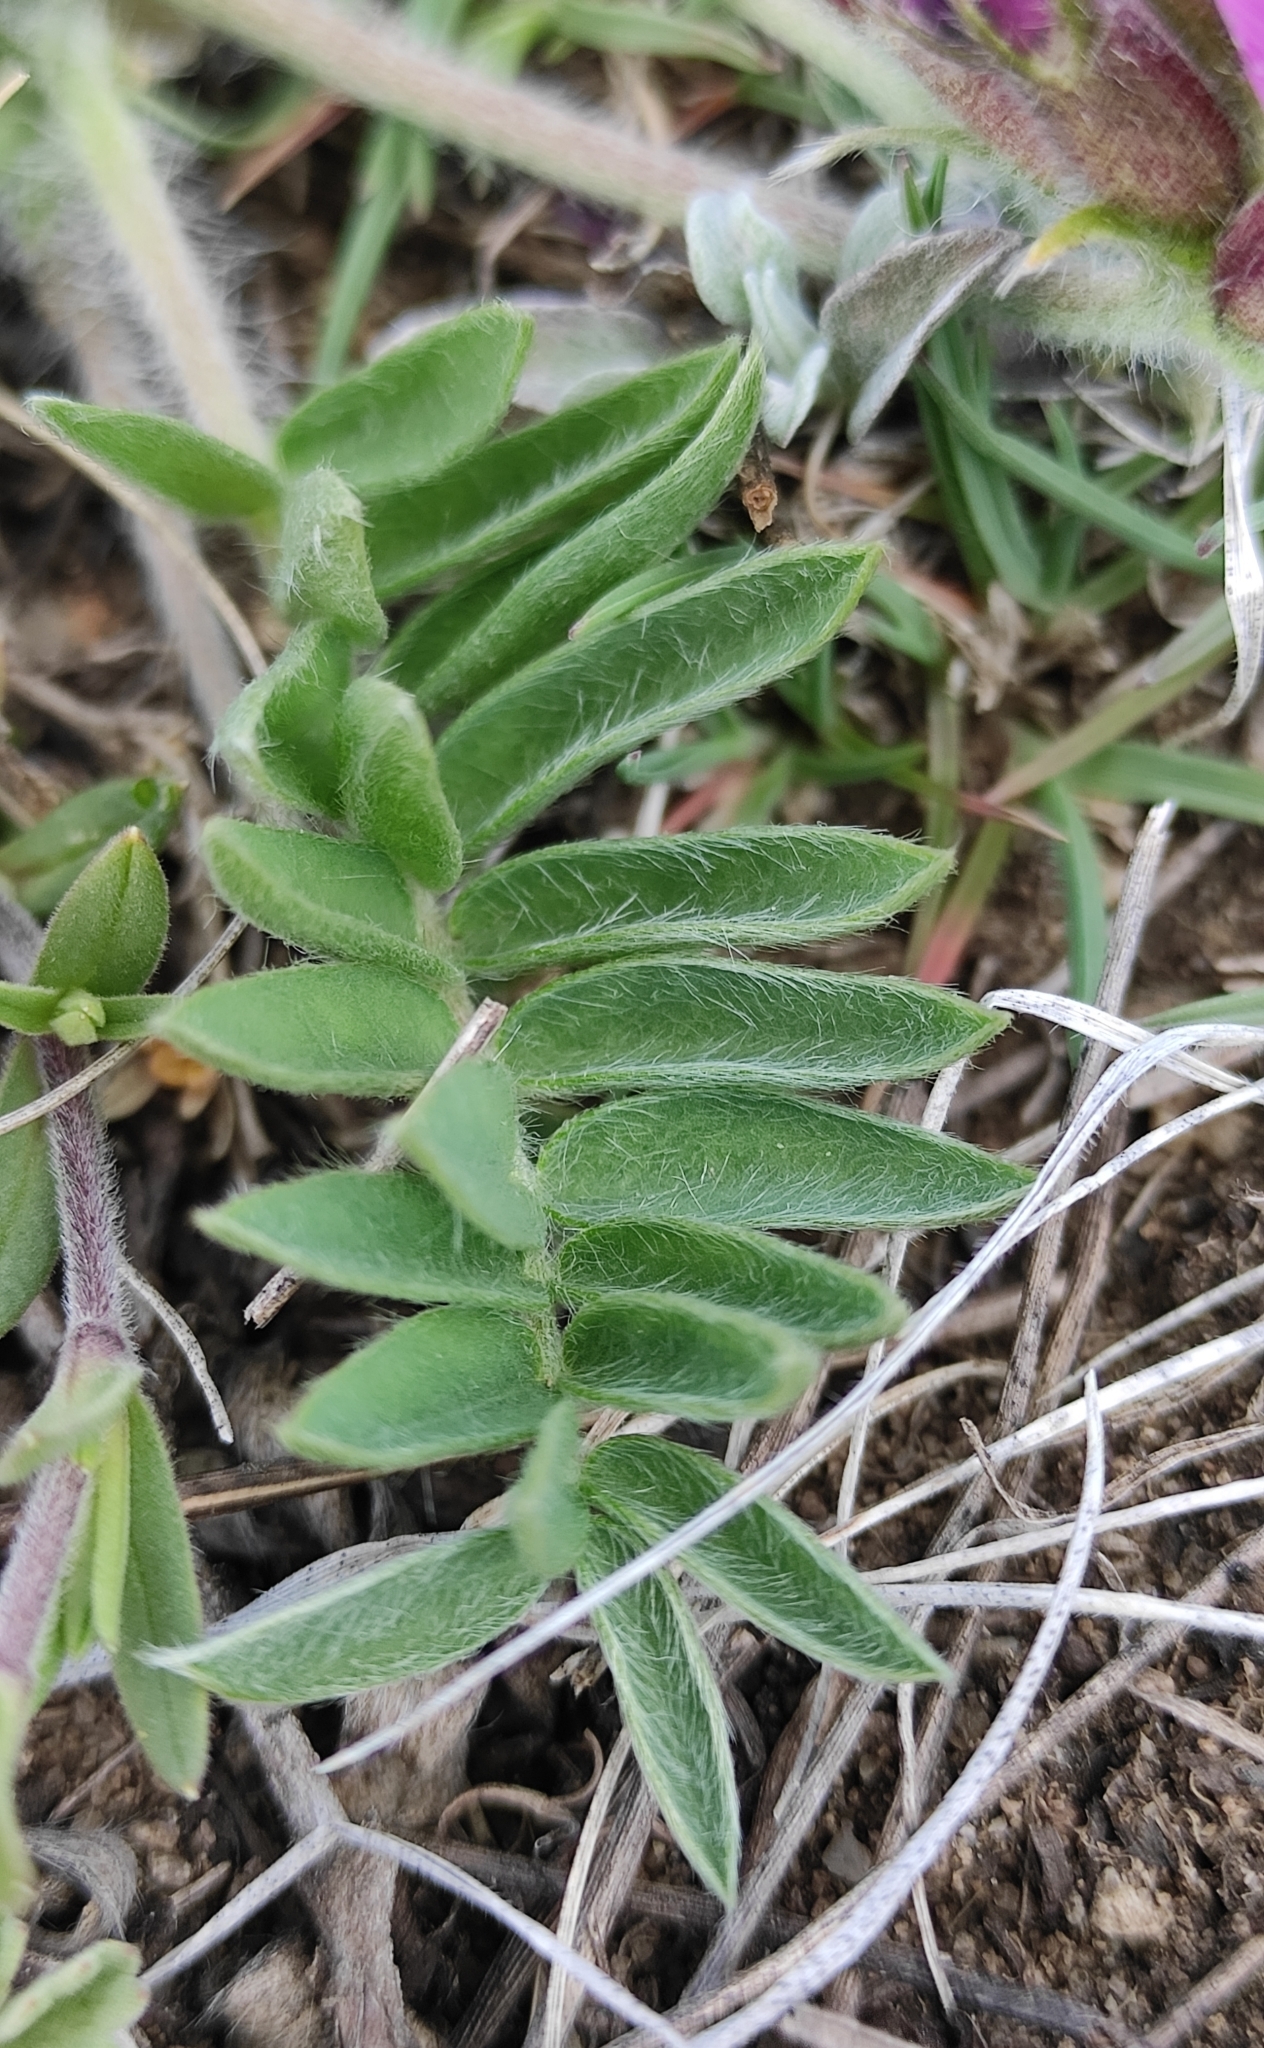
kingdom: Plantae
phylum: Tracheophyta
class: Magnoliopsida
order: Fabales
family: Fabaceae
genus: Oxytropis
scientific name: Oxytropis strobilacea
